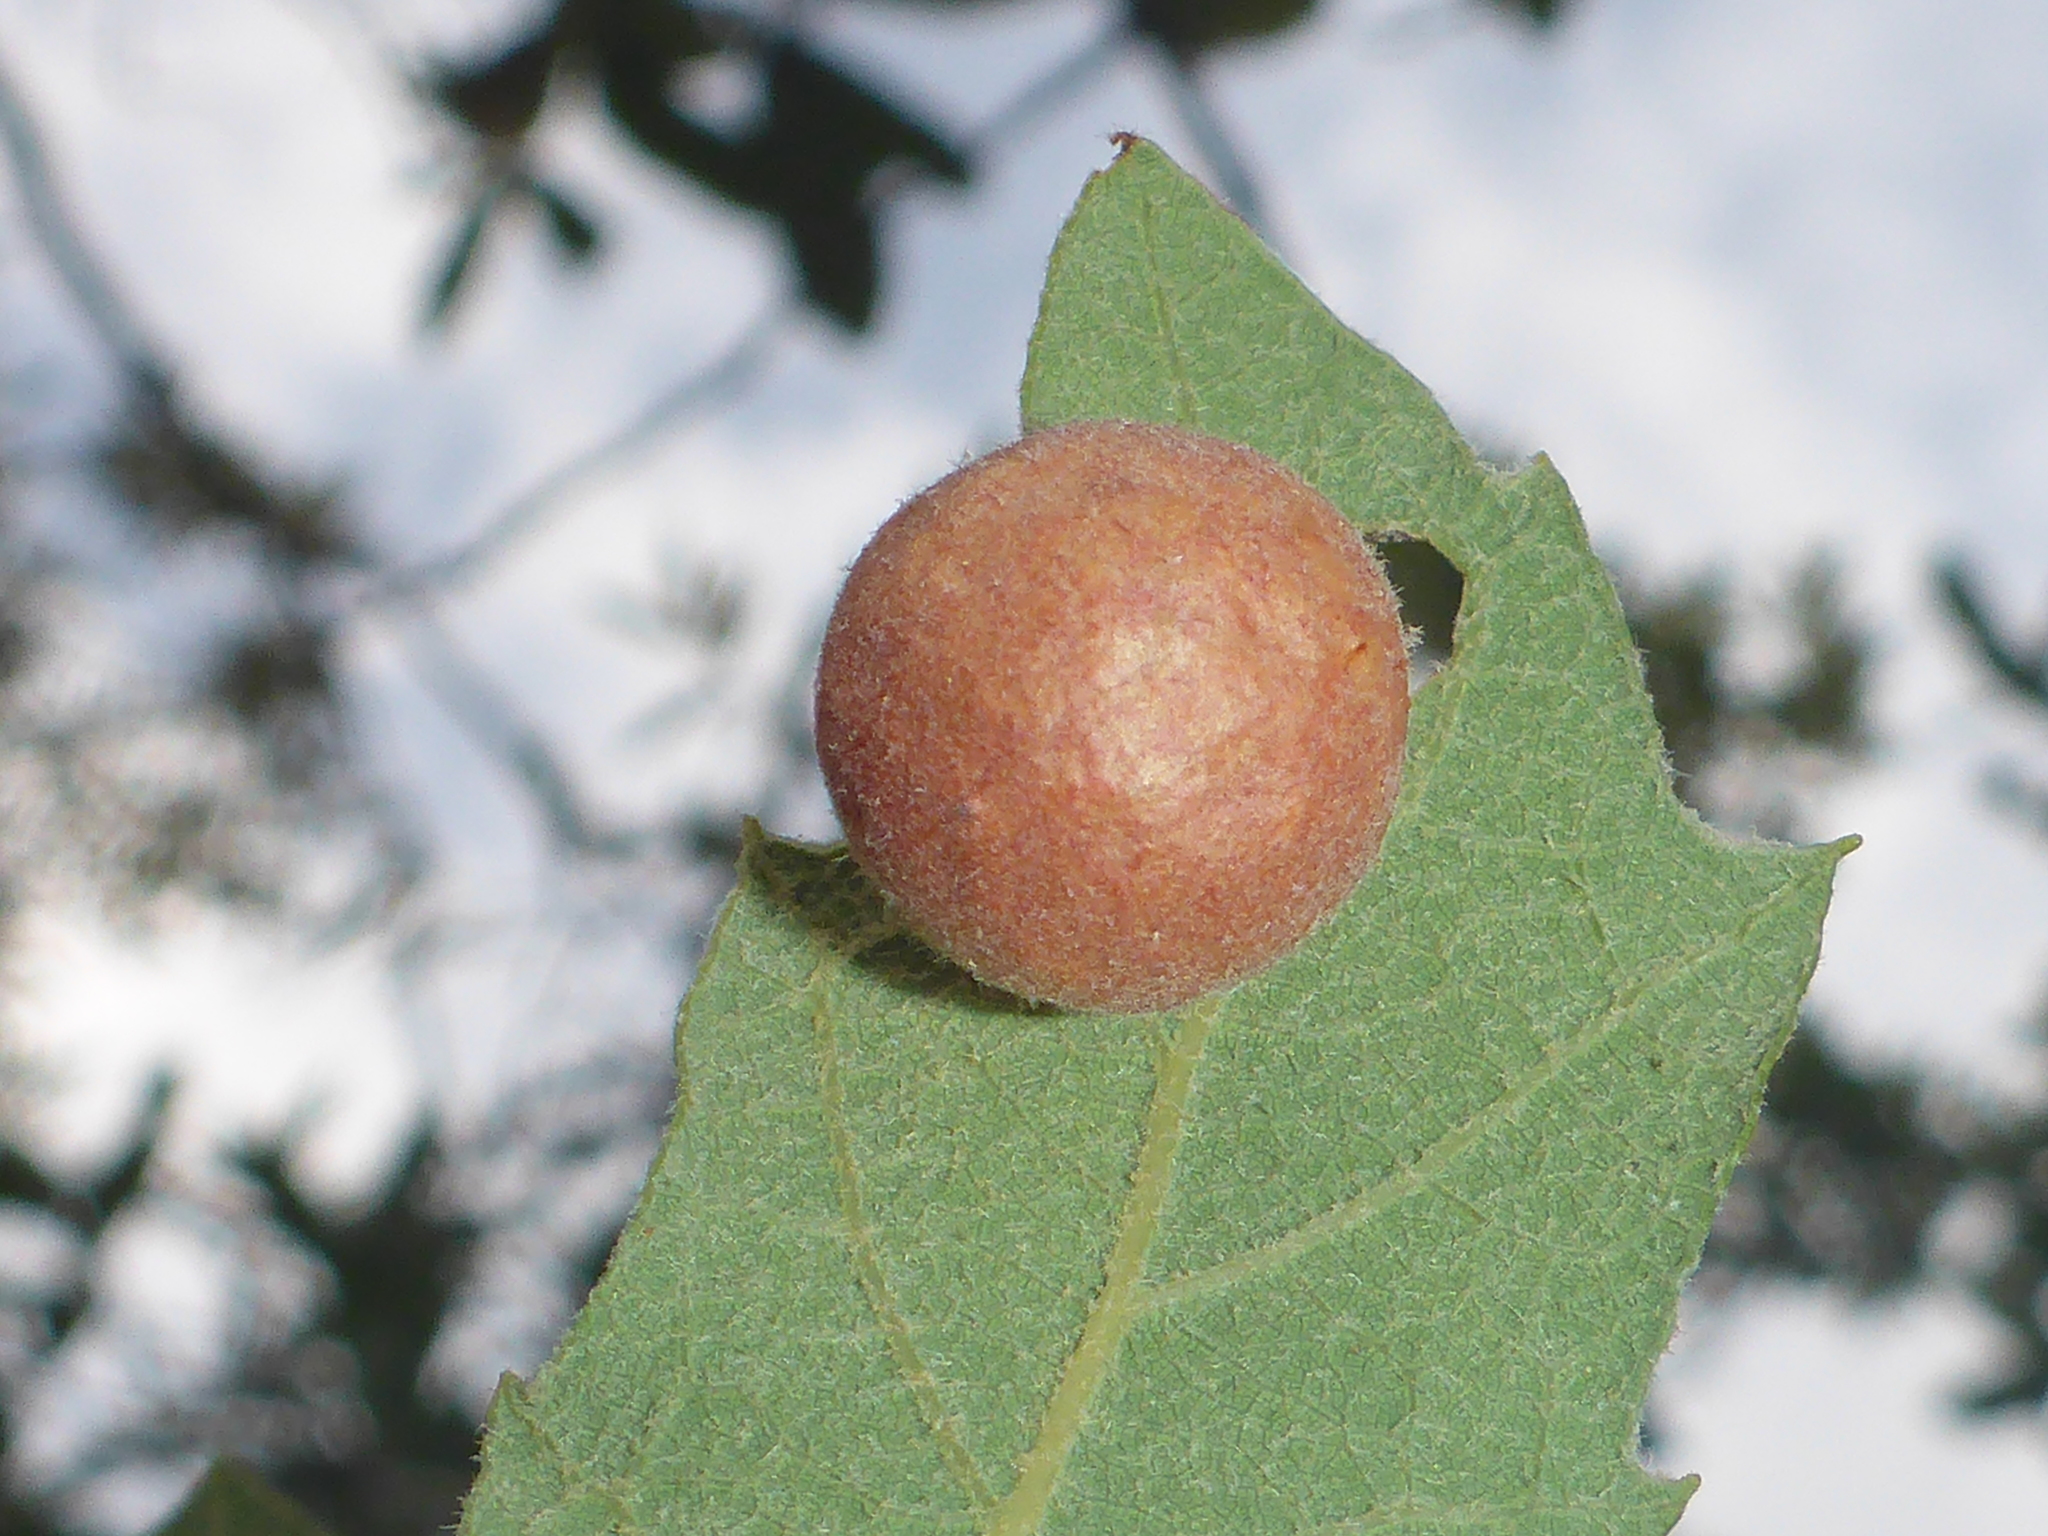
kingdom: Animalia
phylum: Arthropoda
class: Insecta
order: Hymenoptera
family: Cynipidae
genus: Atrusca
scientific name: Atrusca
